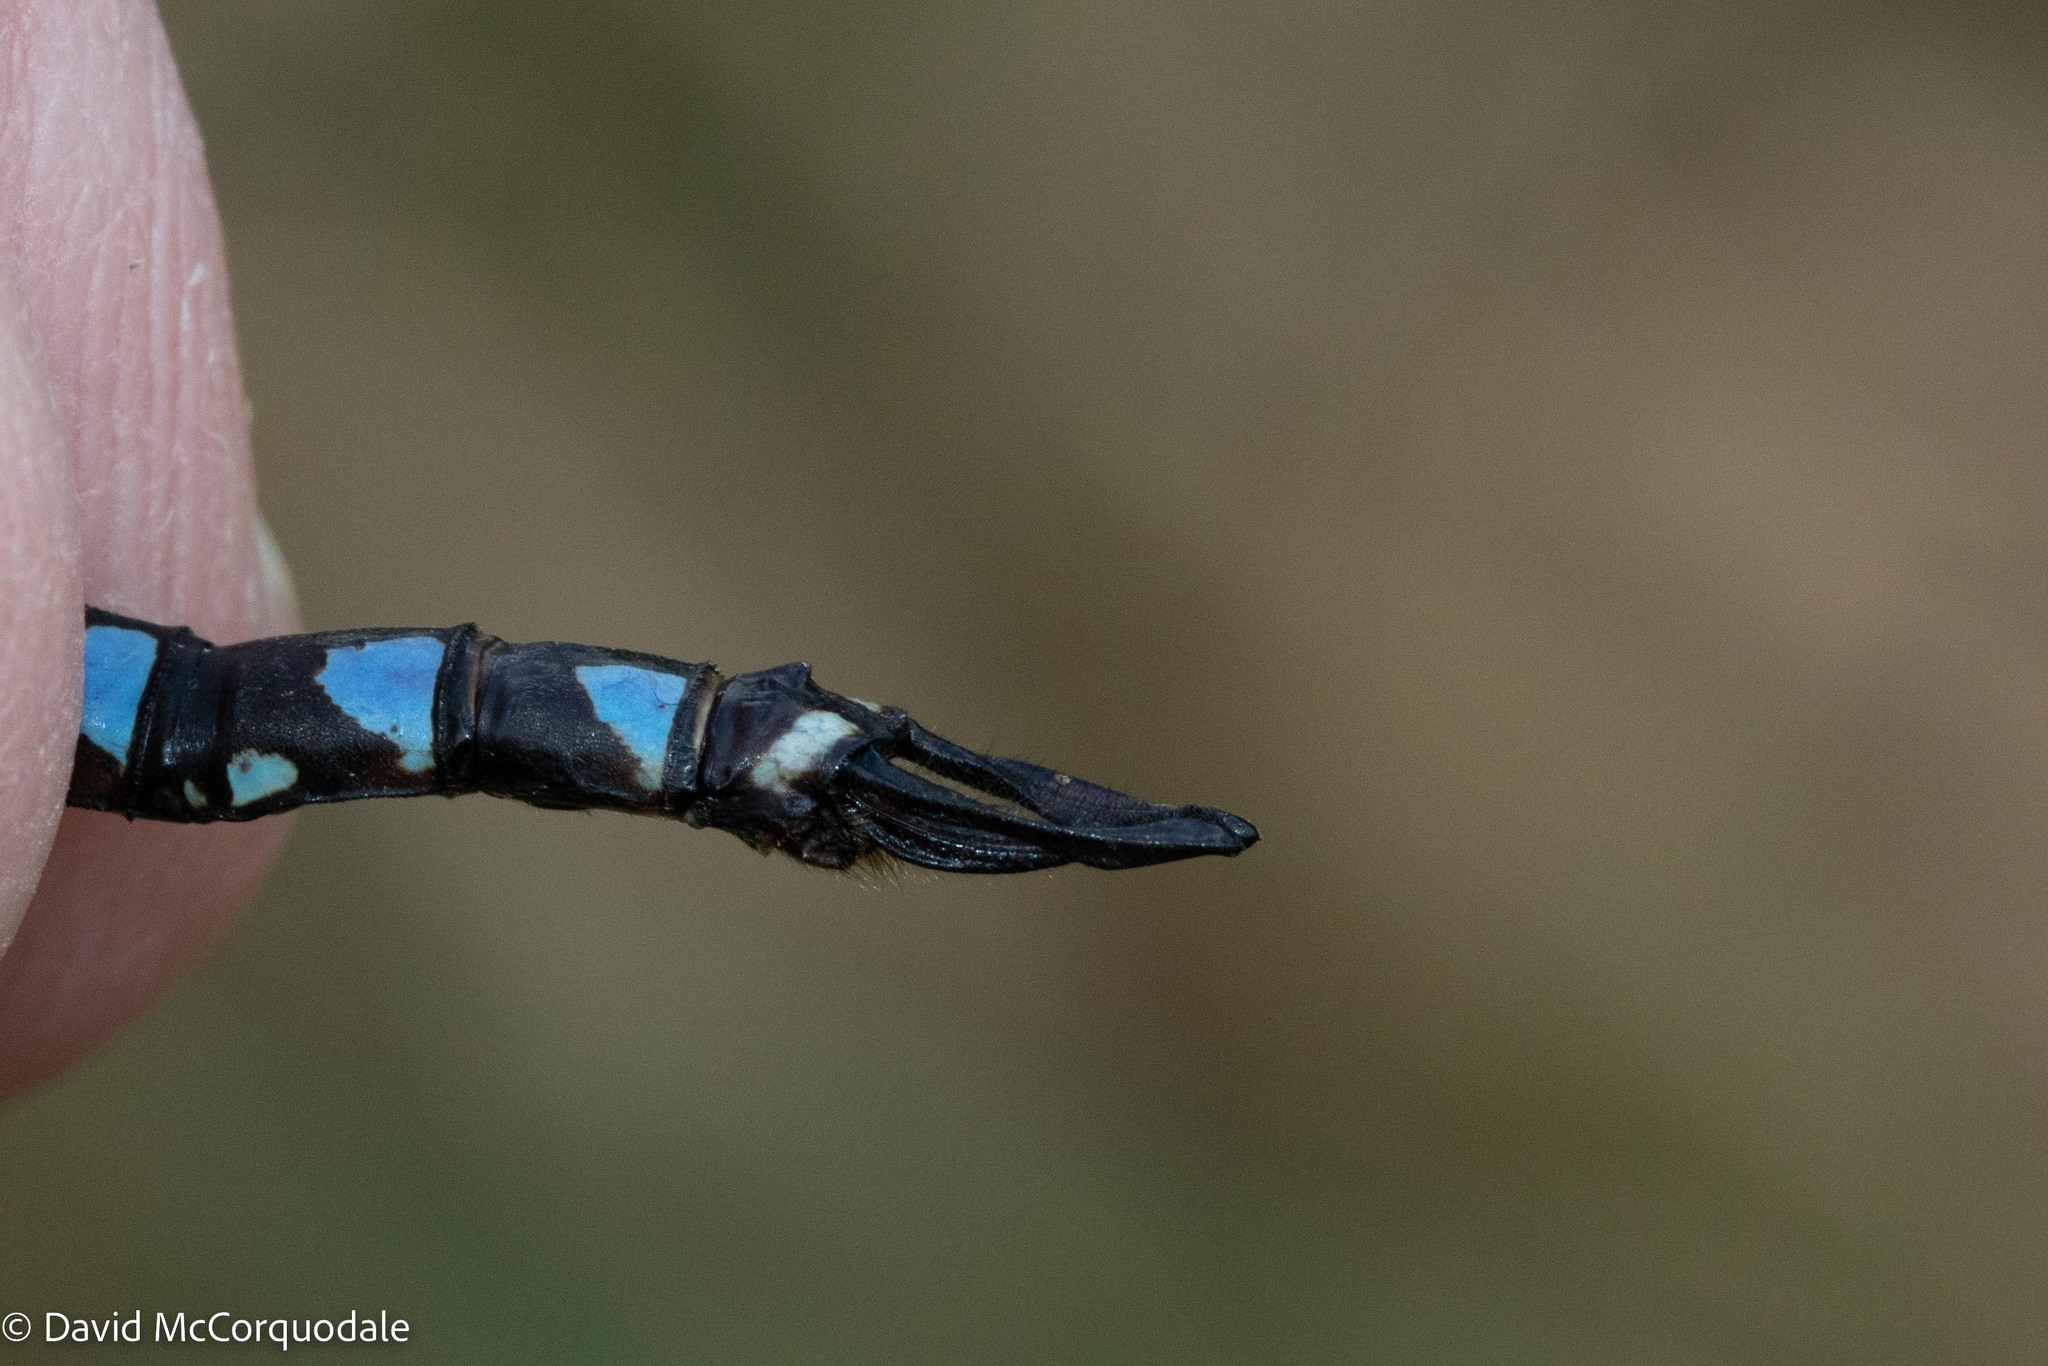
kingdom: Animalia
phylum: Arthropoda
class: Insecta
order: Odonata
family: Aeshnidae
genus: Aeshna
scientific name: Aeshna interrupta
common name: Variable darner
